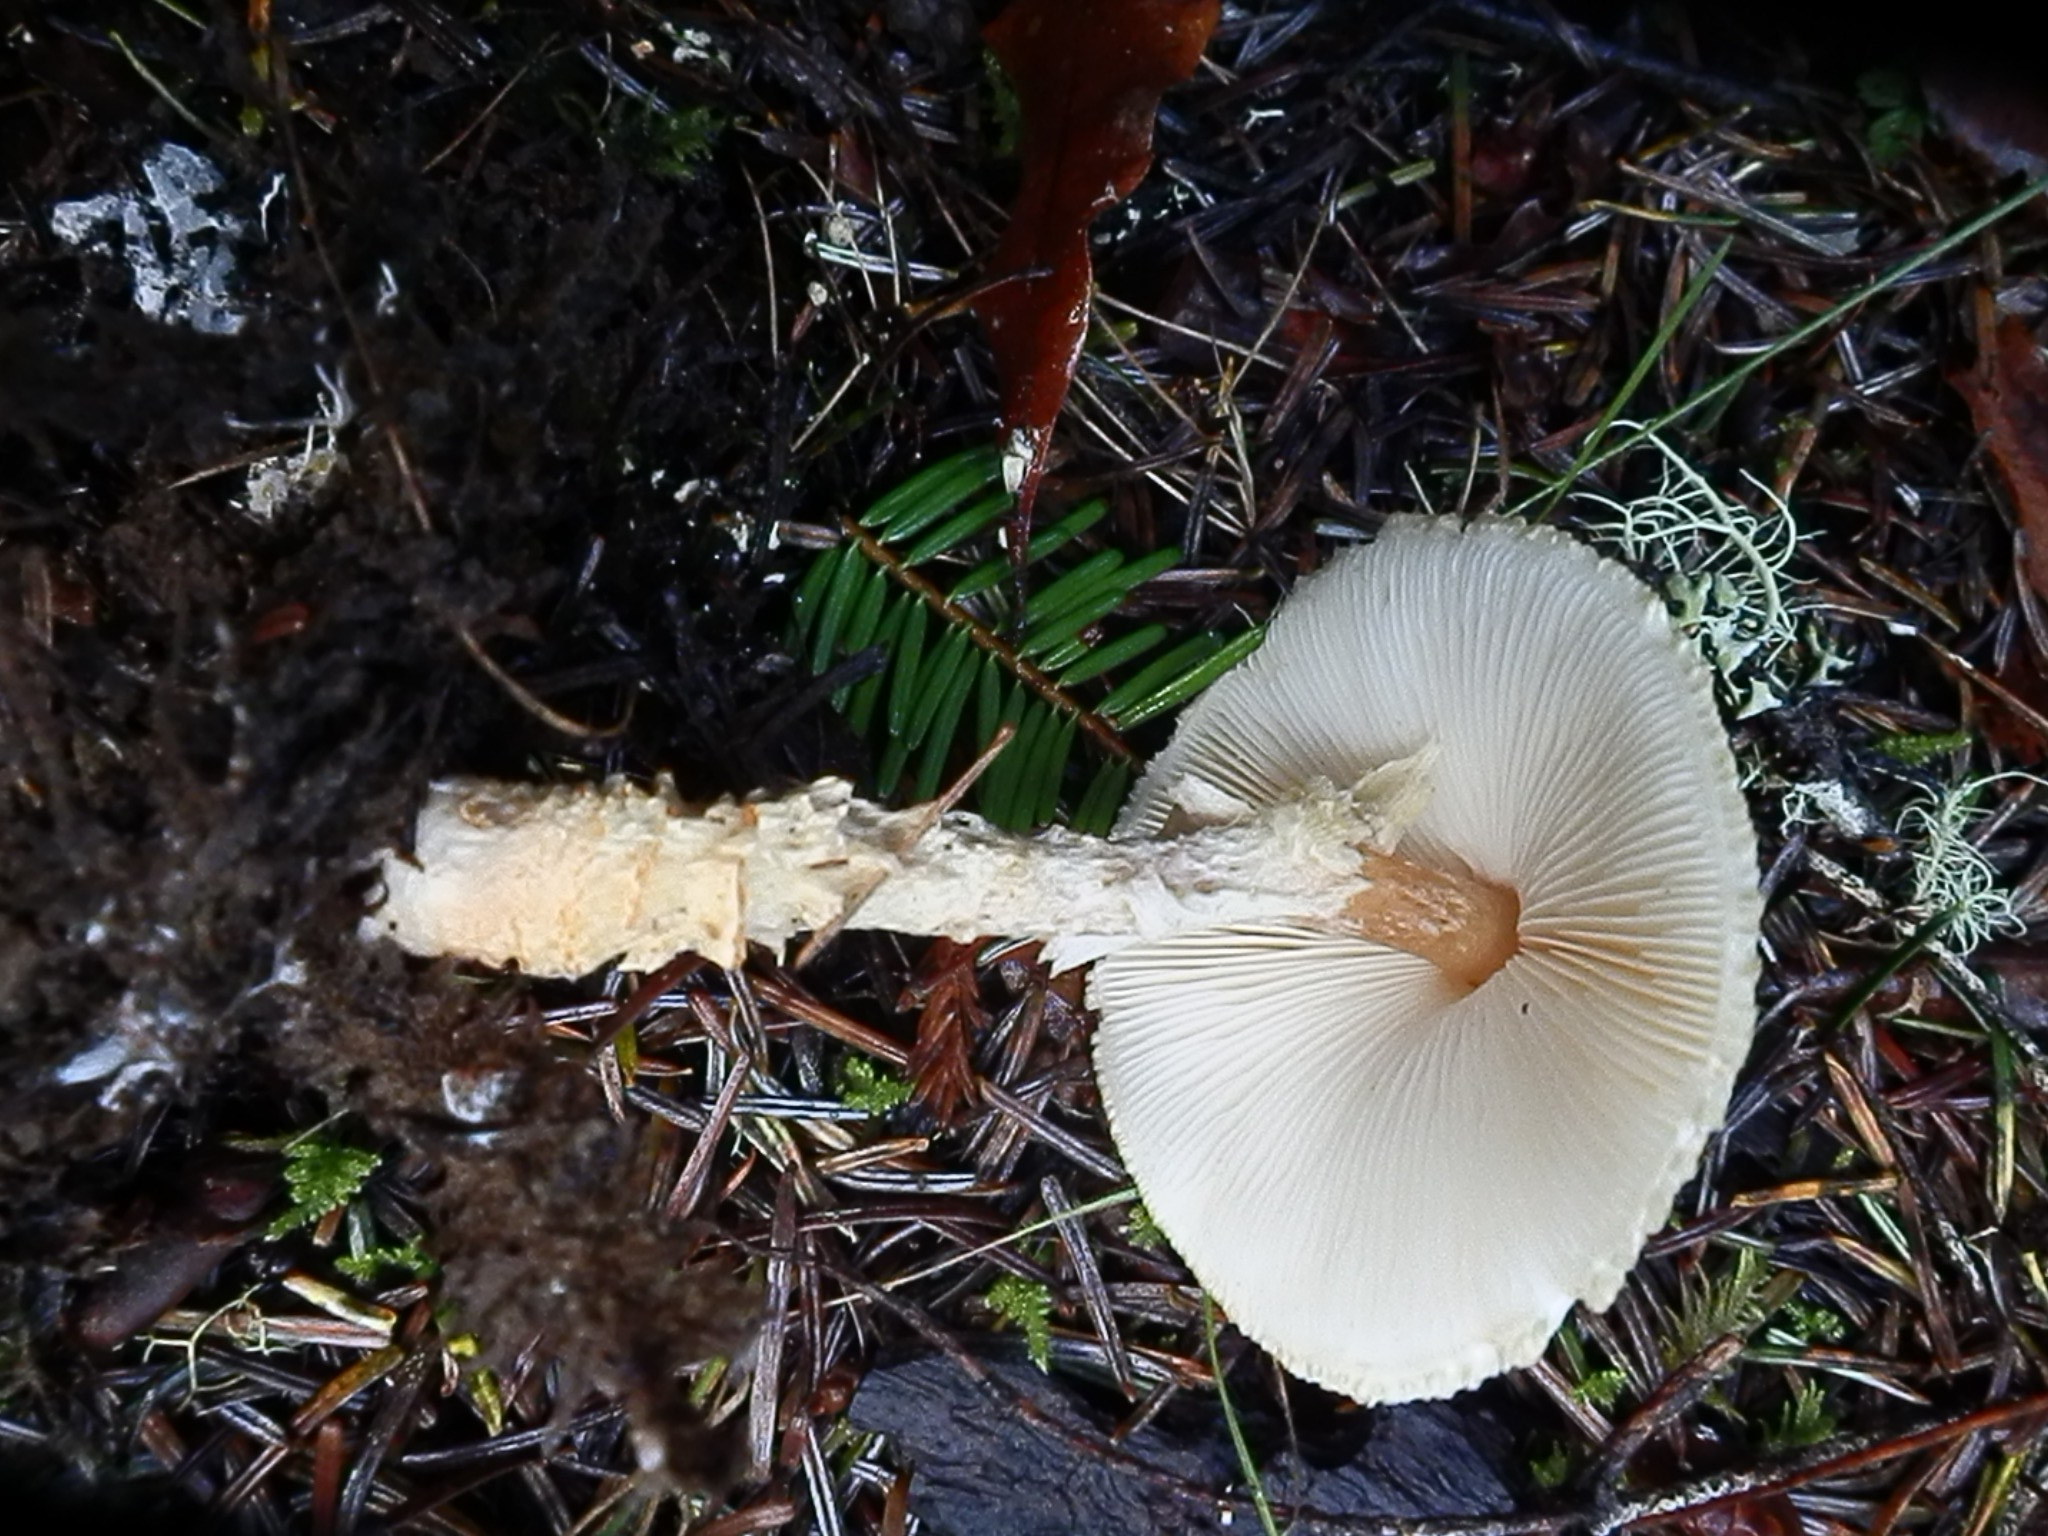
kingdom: Fungi
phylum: Basidiomycota
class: Agaricomycetes
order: Agaricales
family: Agaricaceae
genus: Lepiota
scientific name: Lepiota magnispora
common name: Yellowfoot dapperling
